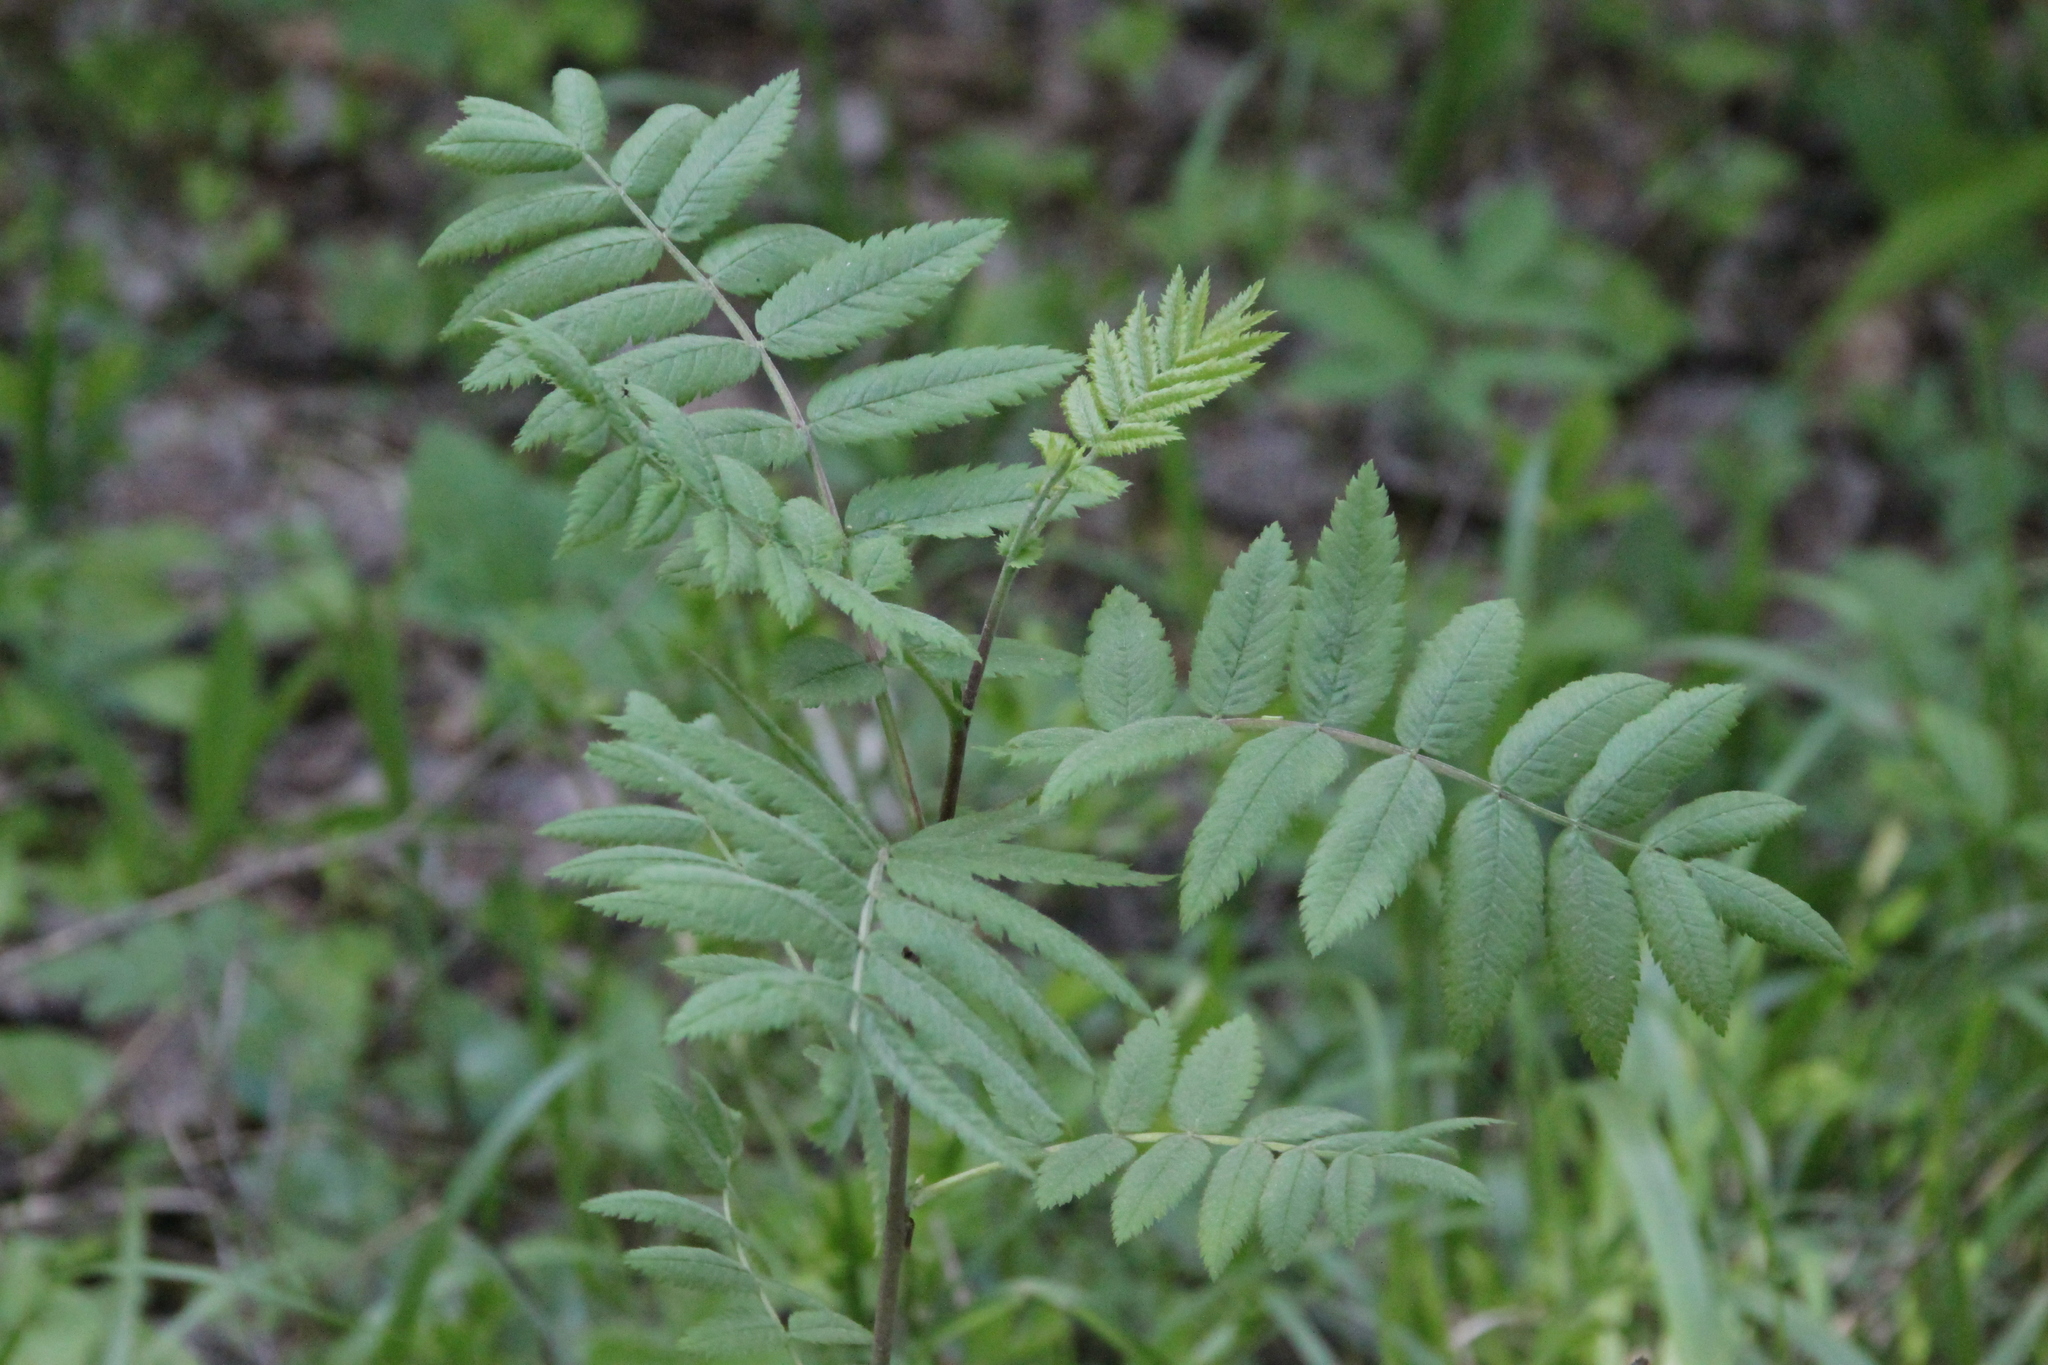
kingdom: Plantae
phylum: Tracheophyta
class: Magnoliopsida
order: Rosales
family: Rosaceae
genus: Sorbus
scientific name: Sorbus aucuparia
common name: Rowan
